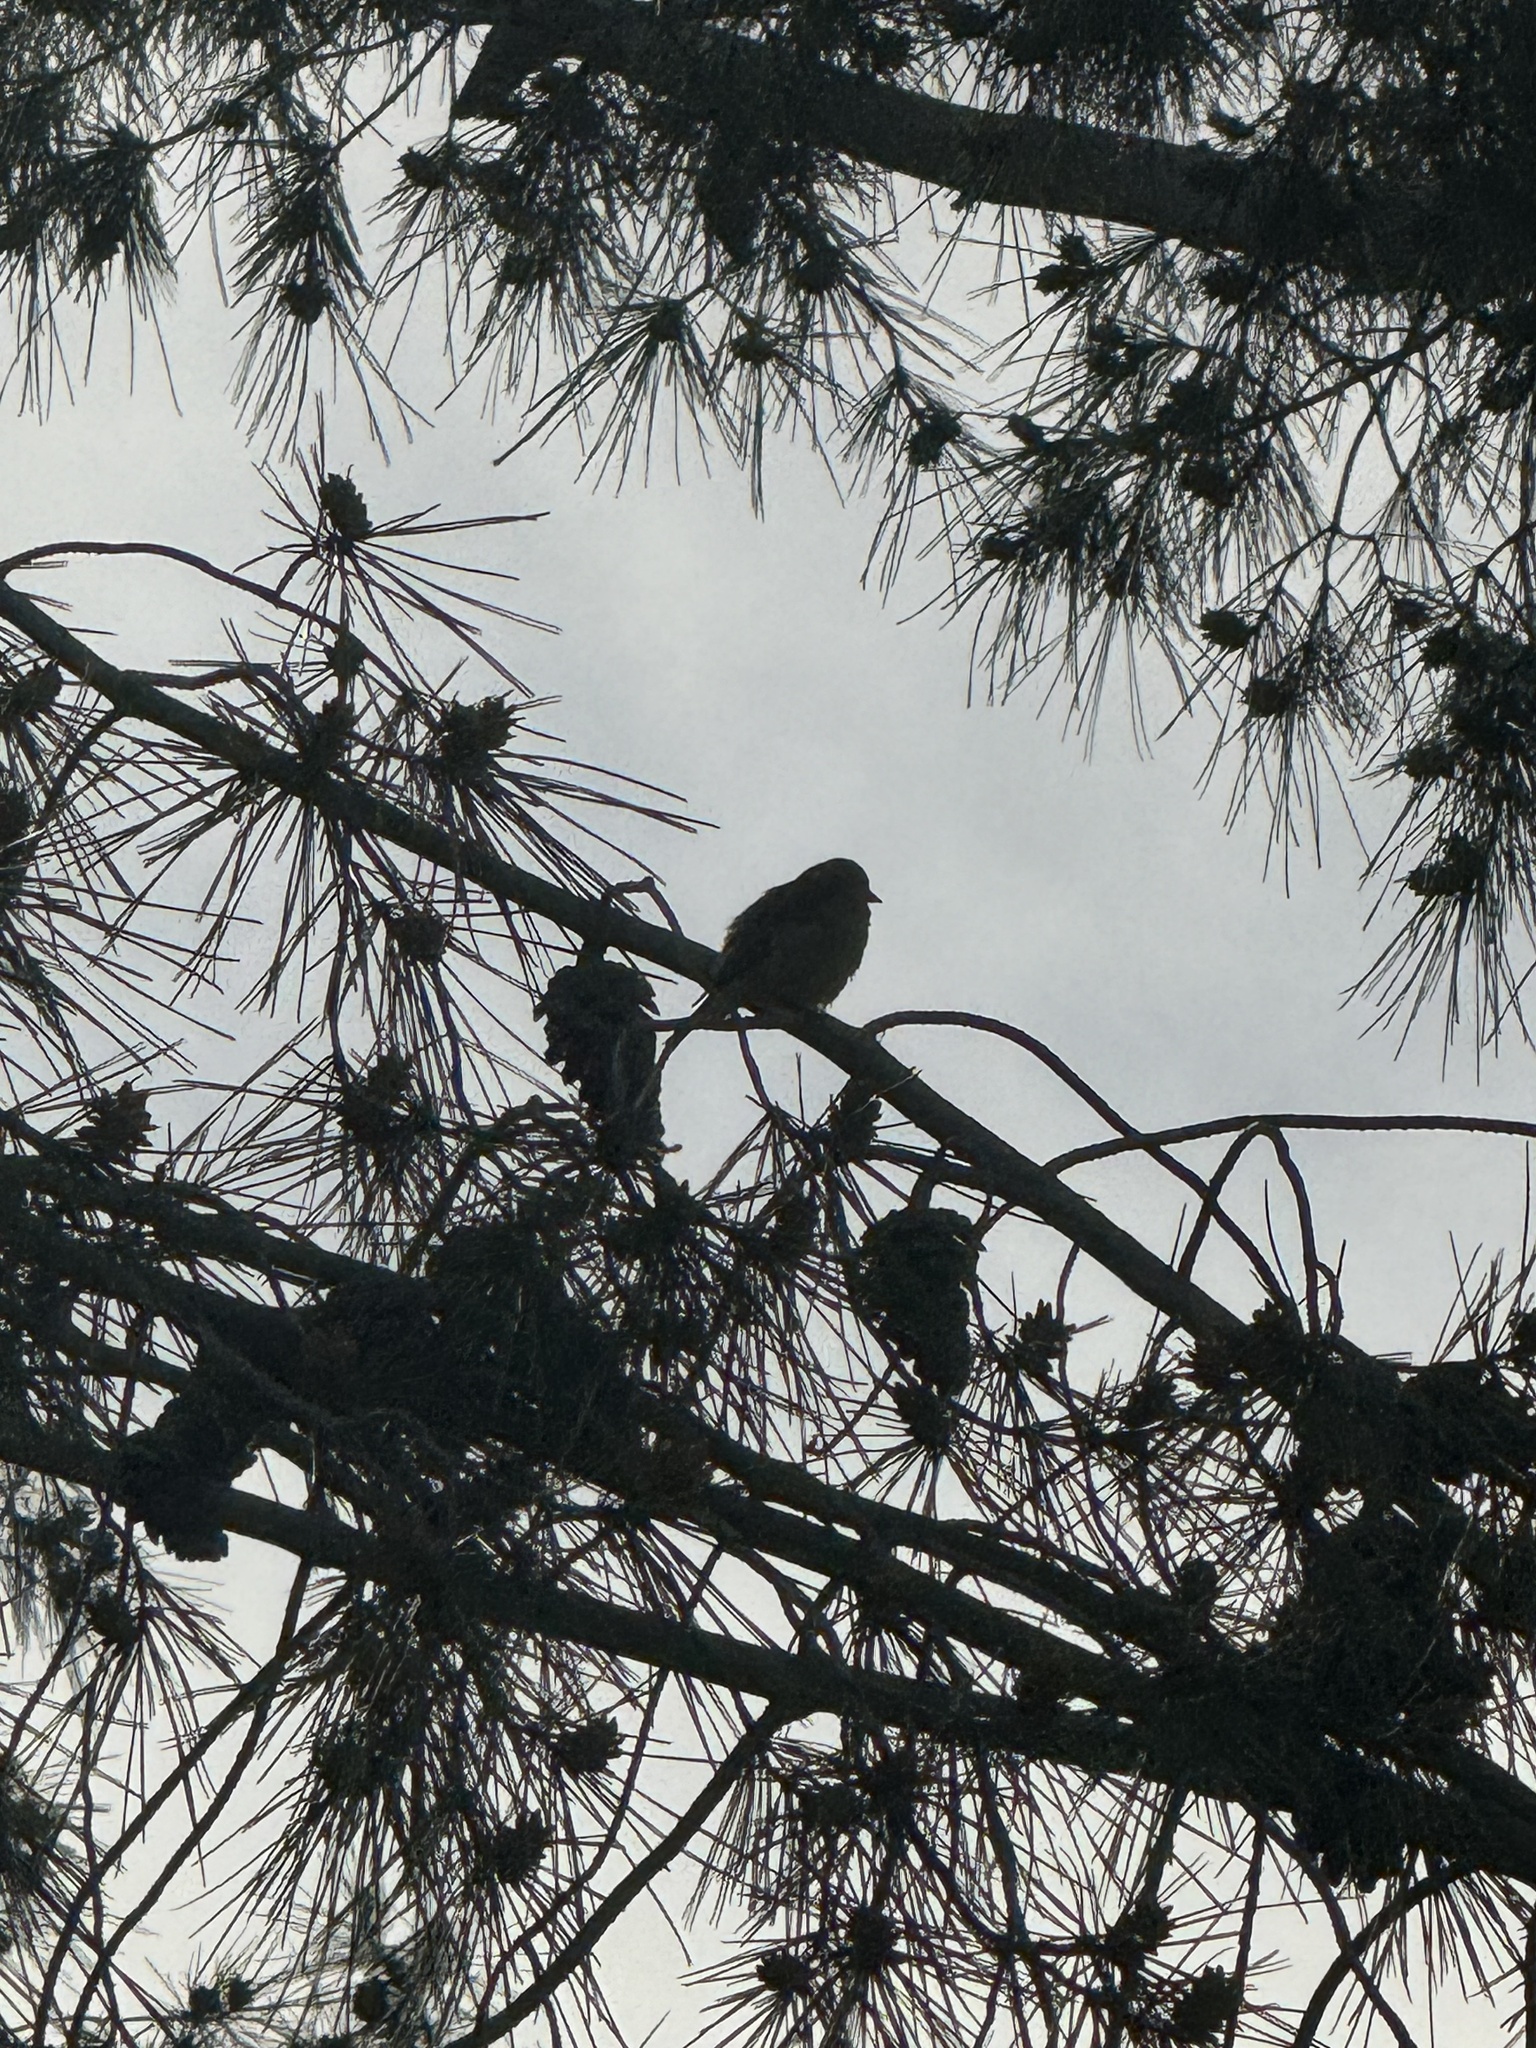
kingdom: Animalia
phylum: Chordata
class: Aves
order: Passeriformes
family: Fringillidae
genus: Spinus
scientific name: Spinus psaltria
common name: Lesser goldfinch
